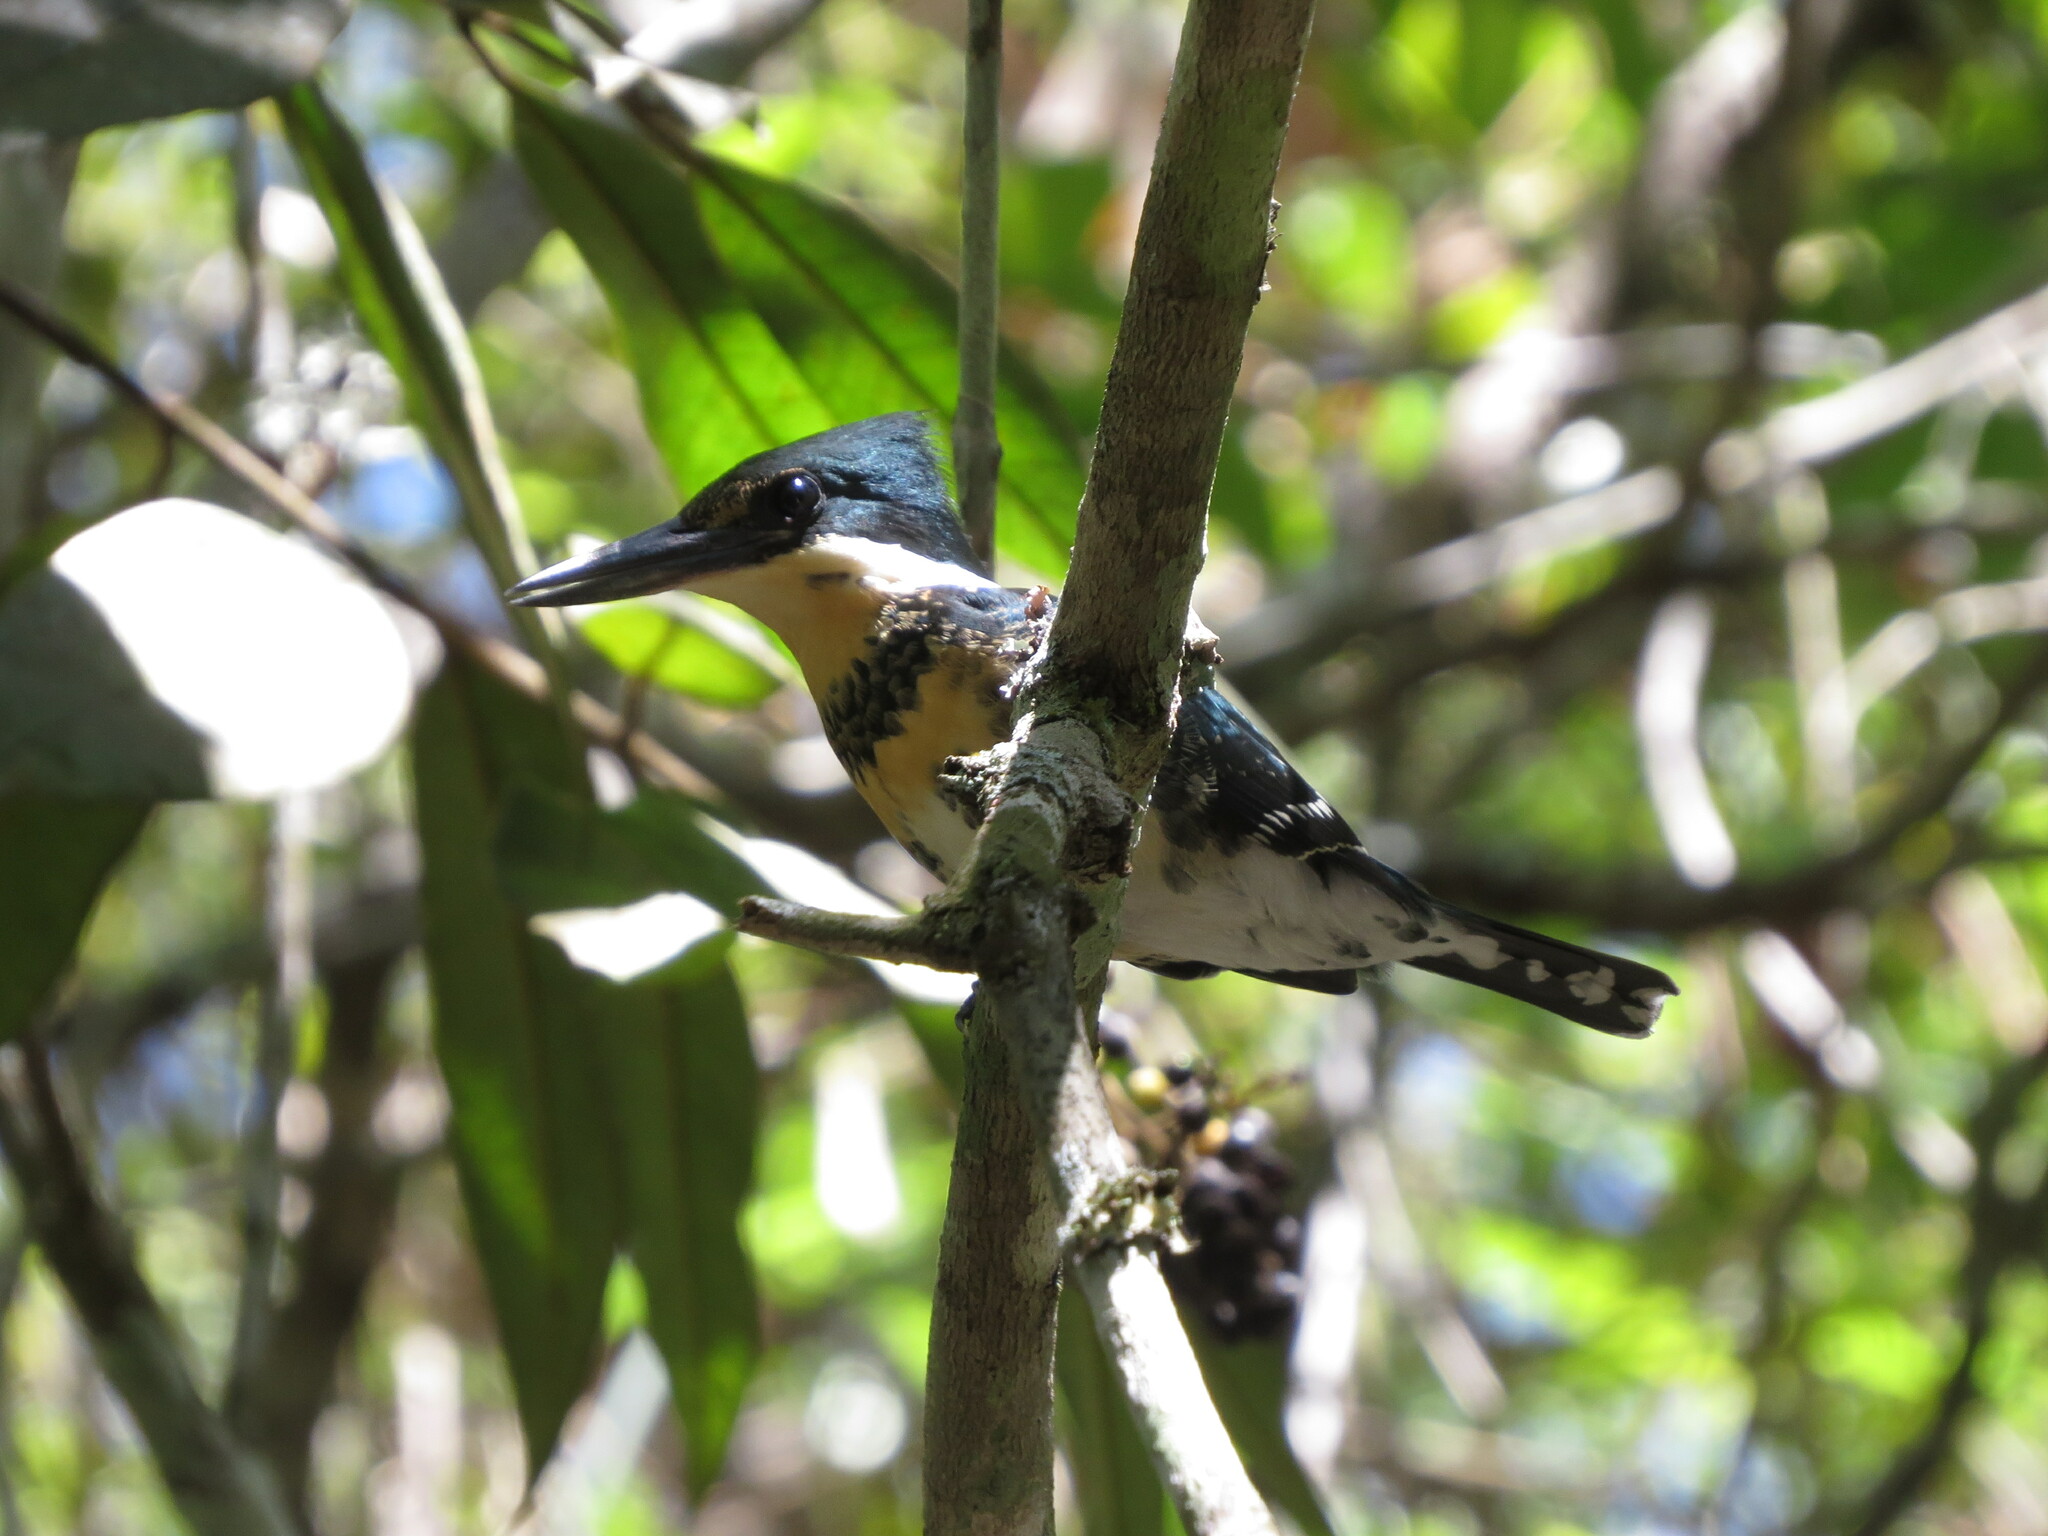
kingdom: Animalia
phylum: Chordata
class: Aves
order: Coraciiformes
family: Alcedinidae
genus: Chloroceryle
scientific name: Chloroceryle americana
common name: Green kingfisher
